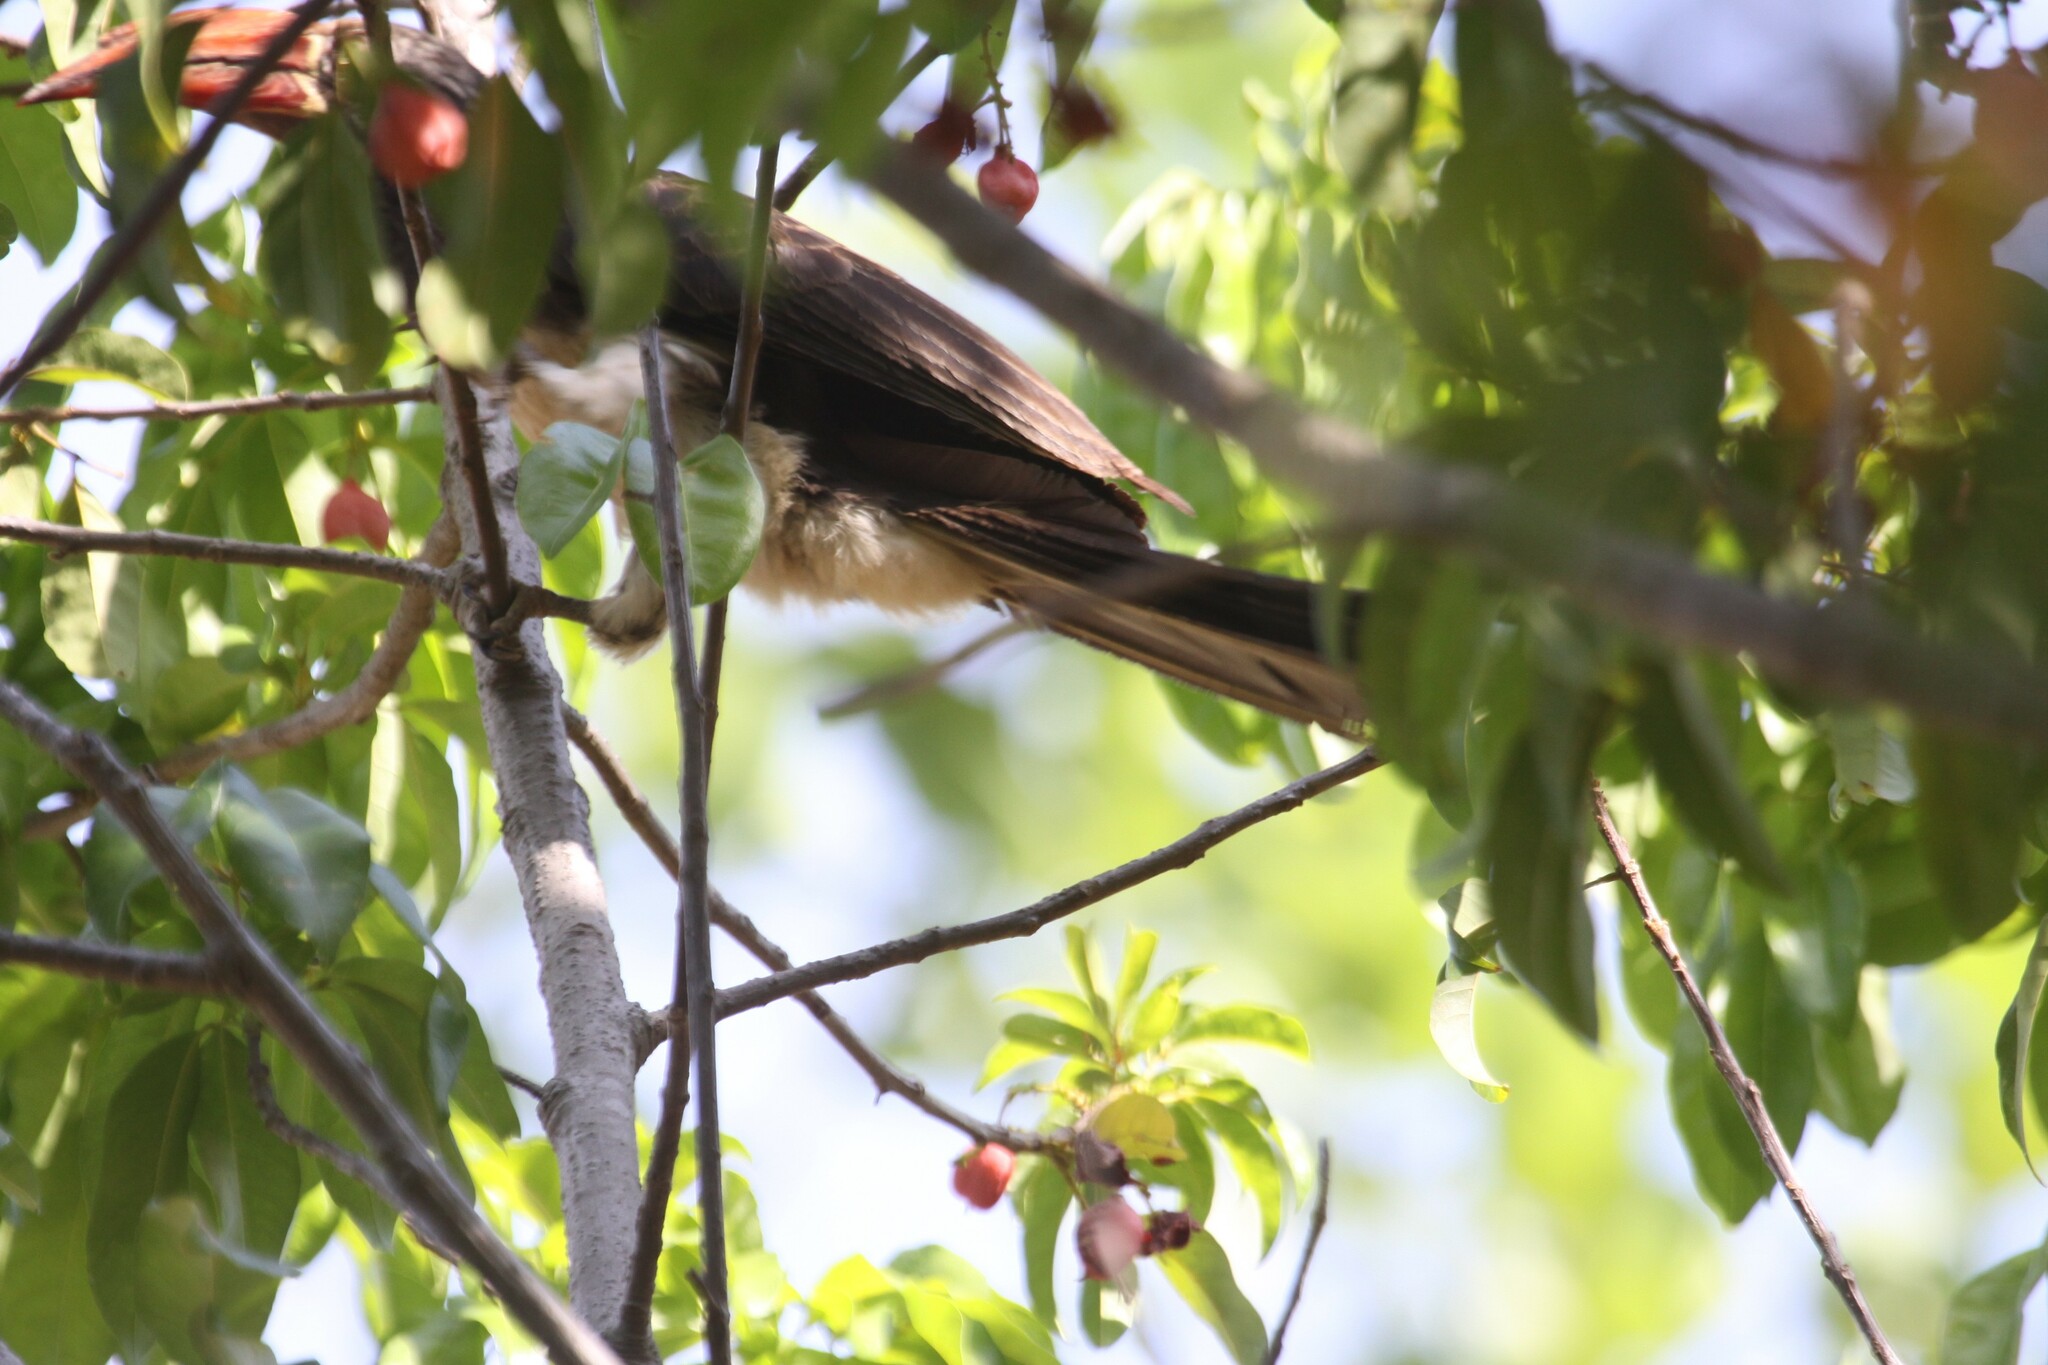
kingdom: Animalia
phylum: Chordata
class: Aves
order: Bucerotiformes
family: Bucerotidae
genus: Lophoceros
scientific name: Lophoceros alboterminatus
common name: Crowned hornbill
